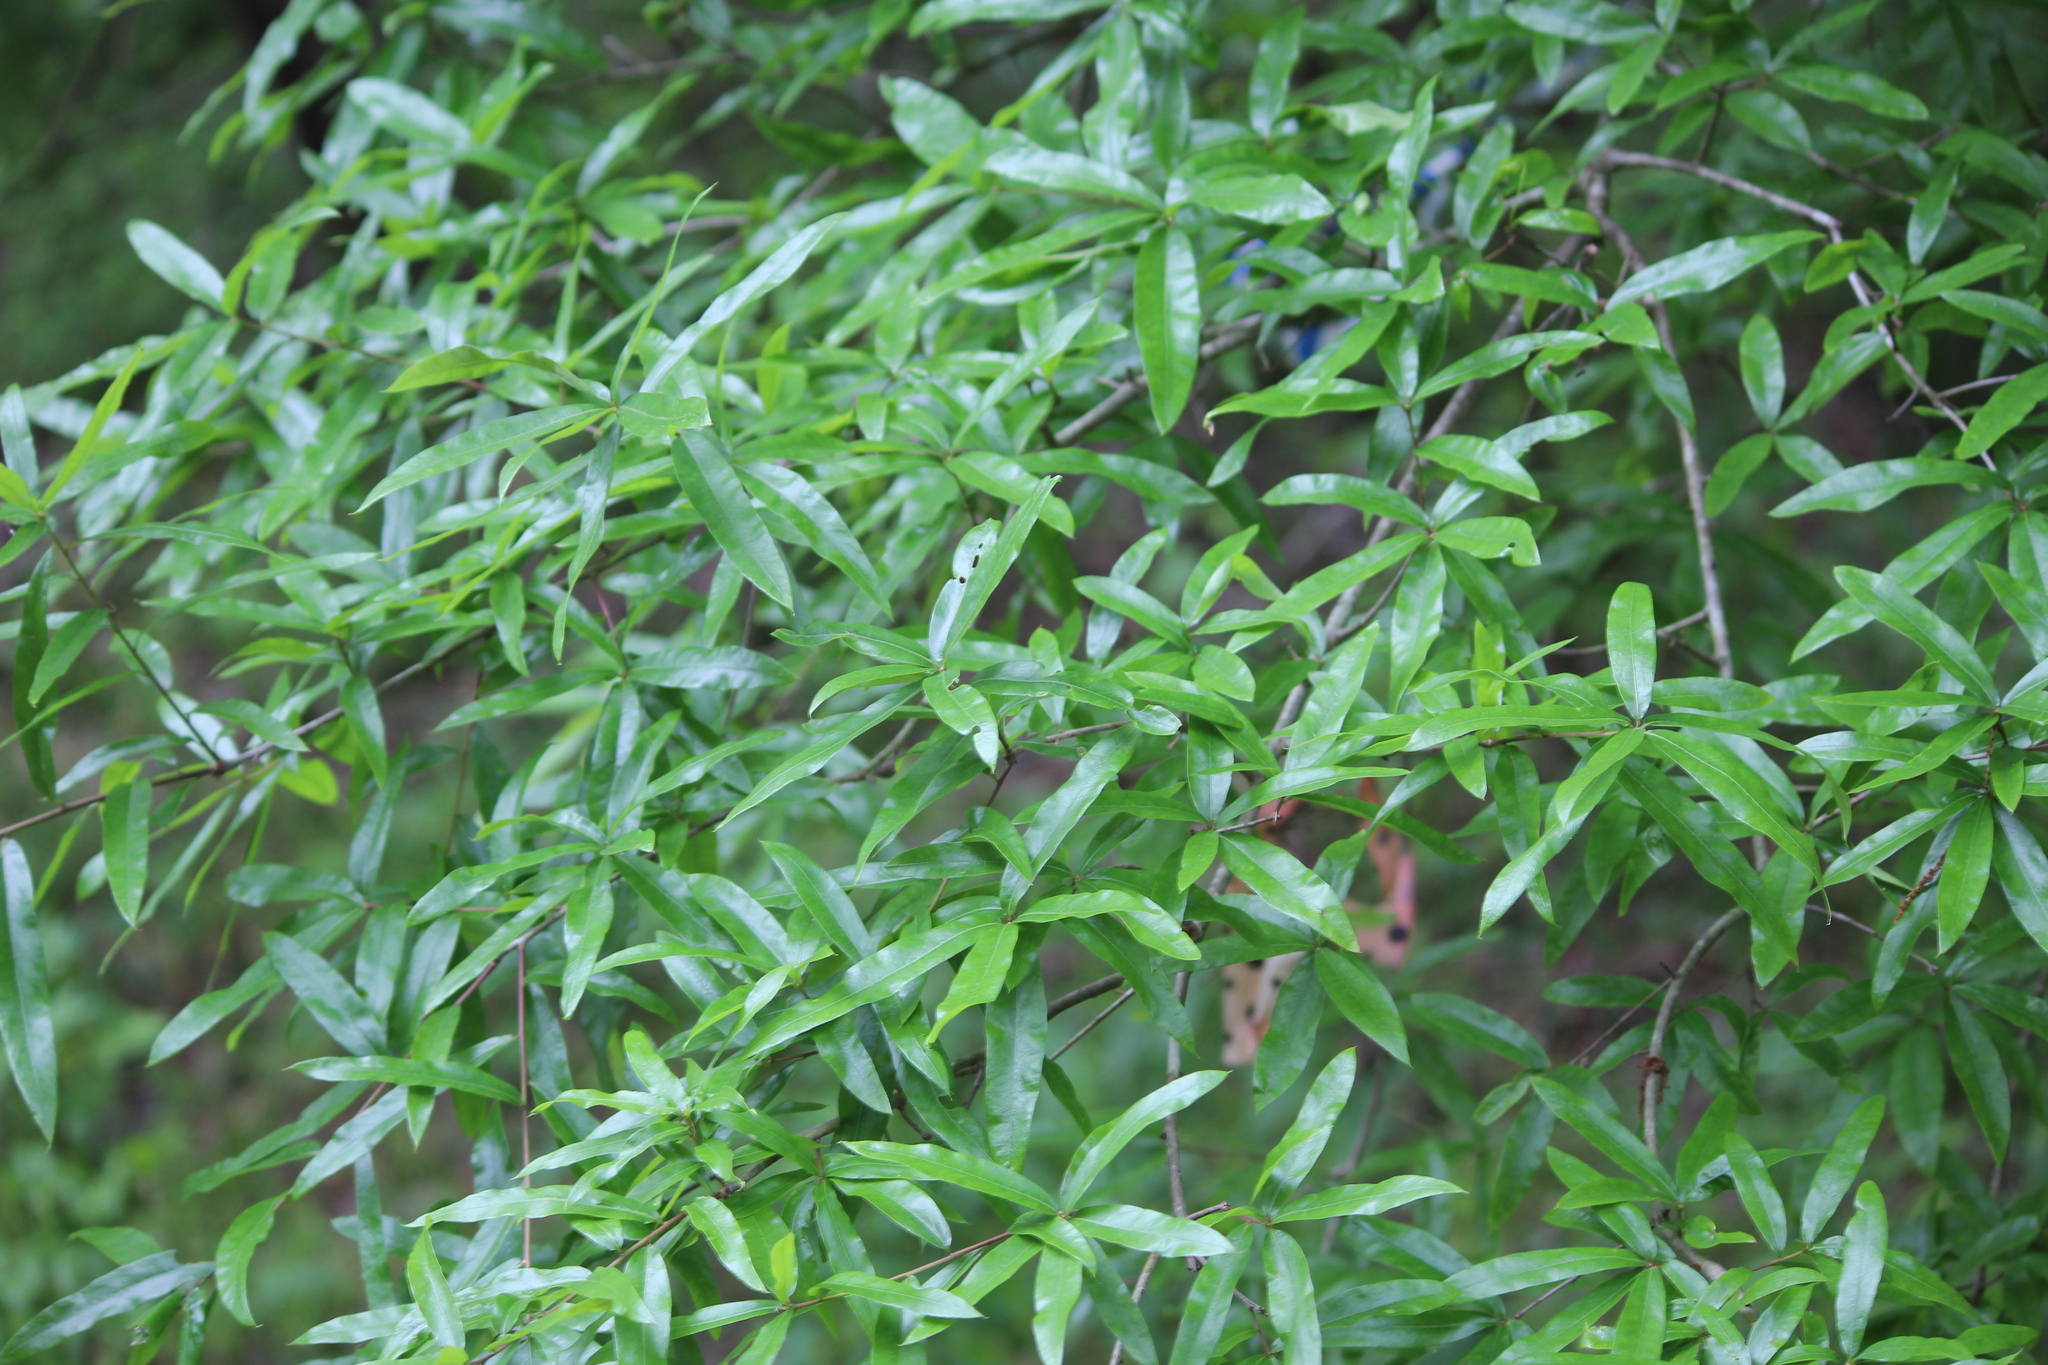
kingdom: Plantae
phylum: Tracheophyta
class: Magnoliopsida
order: Fagales
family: Fagaceae
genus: Quercus
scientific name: Quercus phellos
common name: Willow oak
